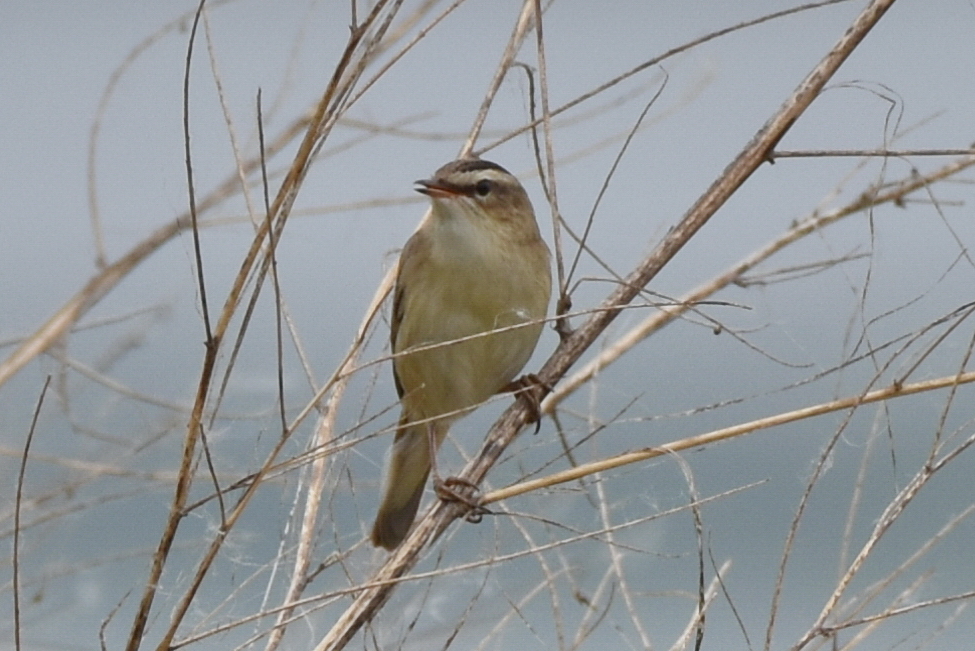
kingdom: Animalia
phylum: Chordata
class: Aves
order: Passeriformes
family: Acrocephalidae
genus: Acrocephalus
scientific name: Acrocephalus schoenobaenus
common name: Sedge warbler
